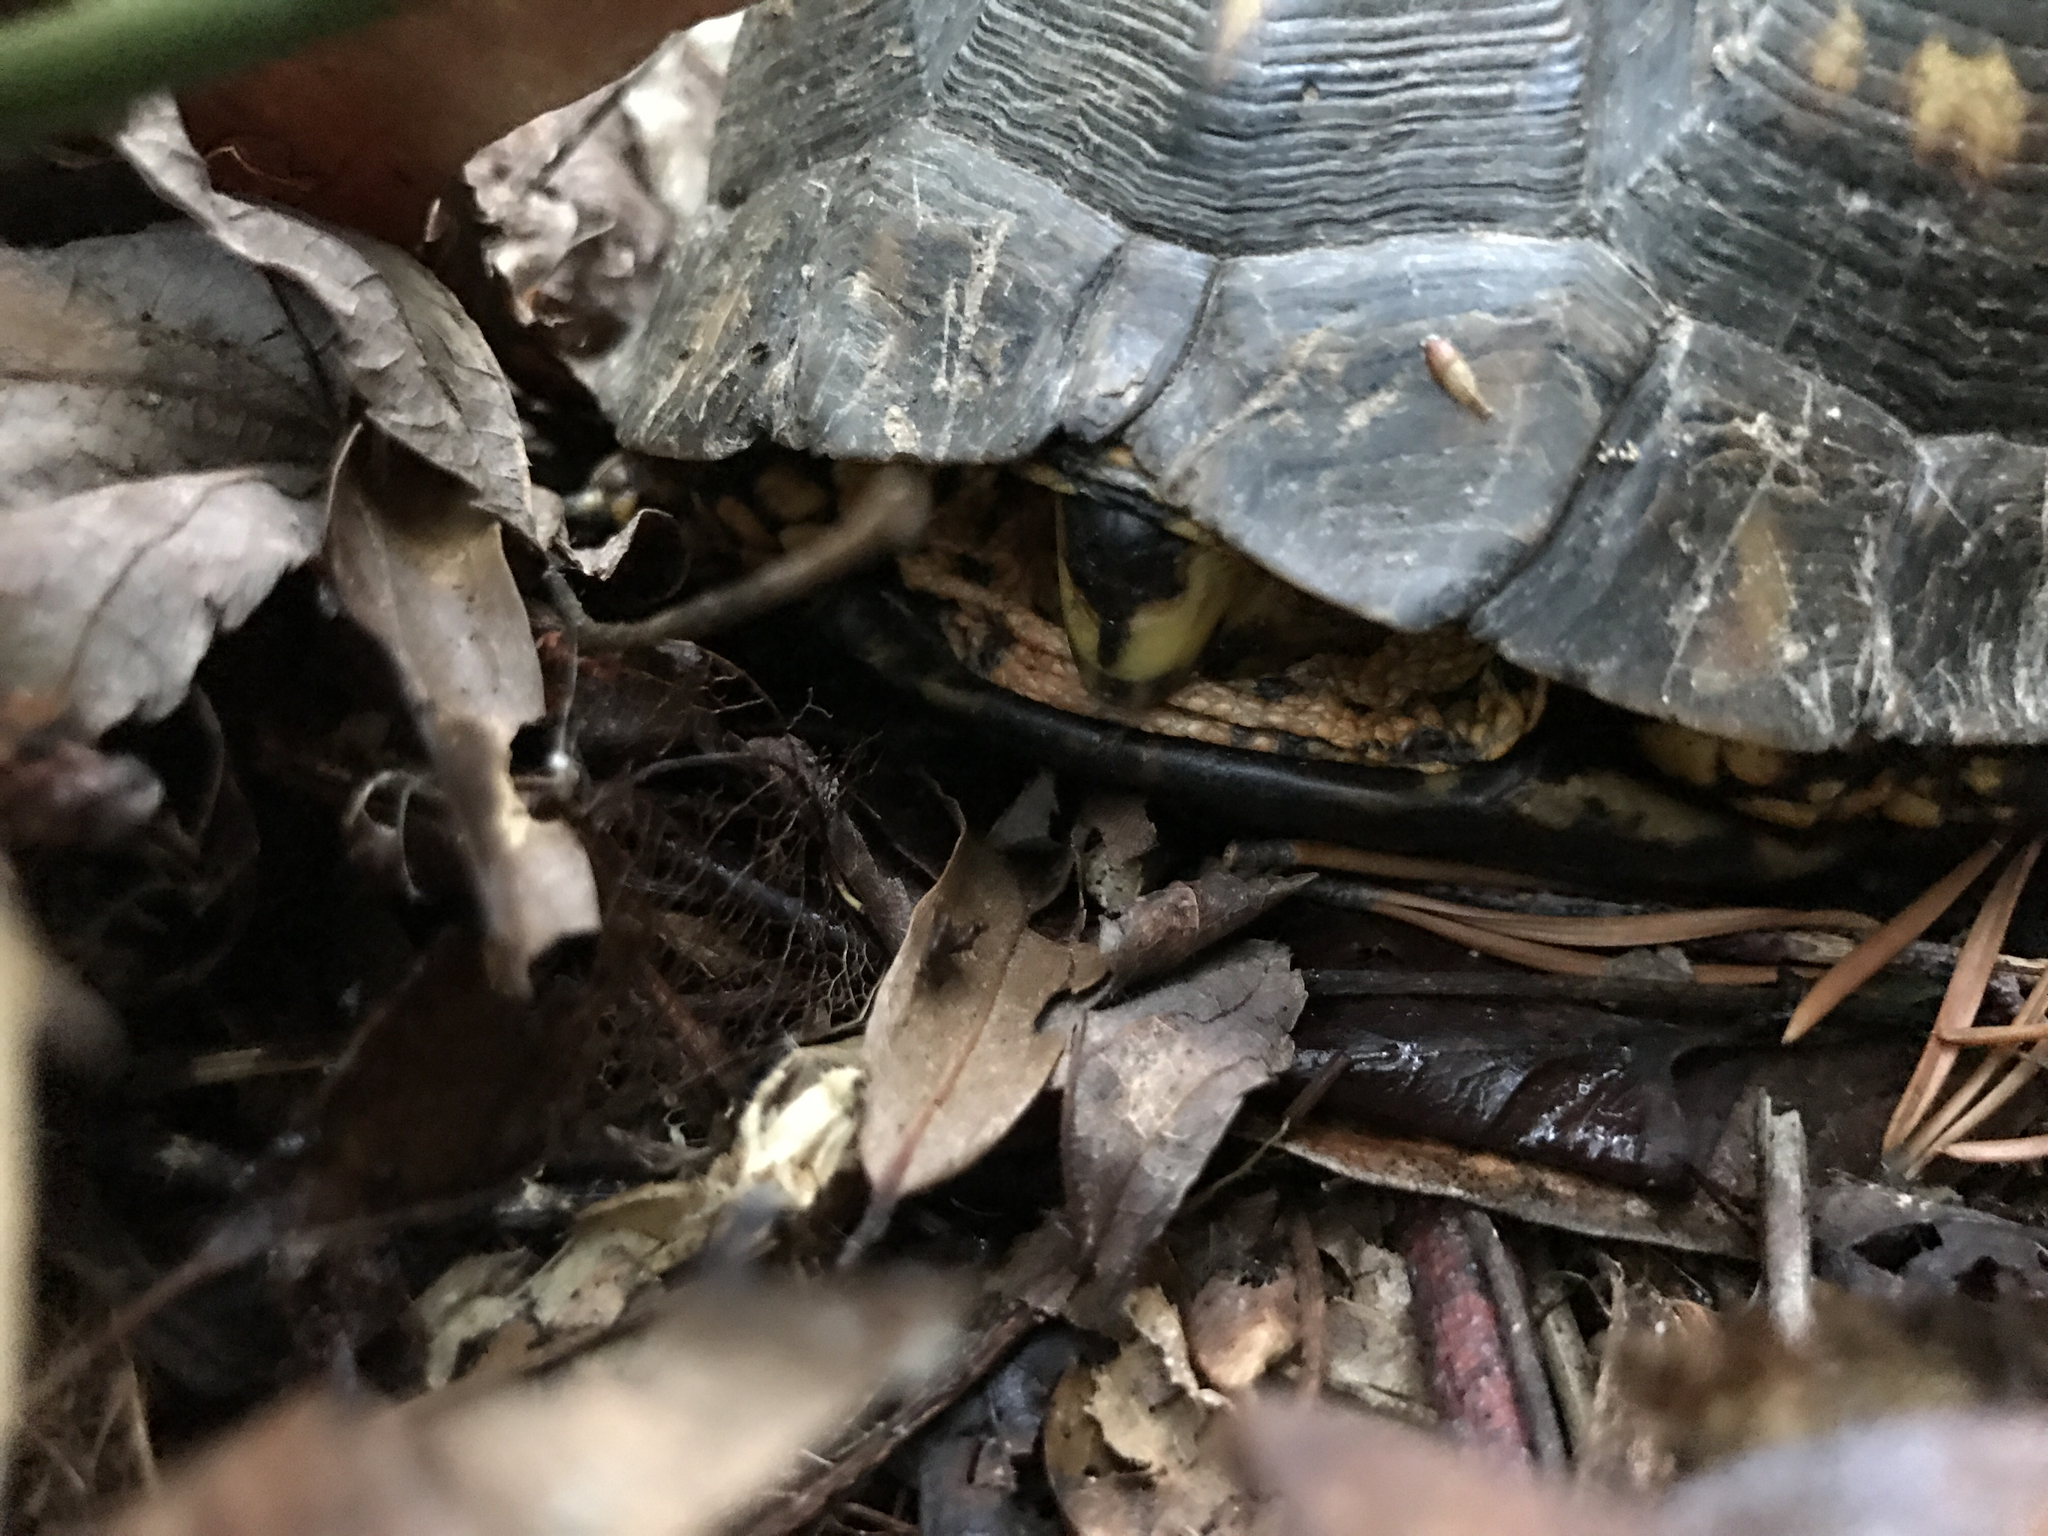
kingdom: Animalia
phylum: Chordata
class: Testudines
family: Emydidae
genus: Terrapene
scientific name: Terrapene carolina
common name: Common box turtle
